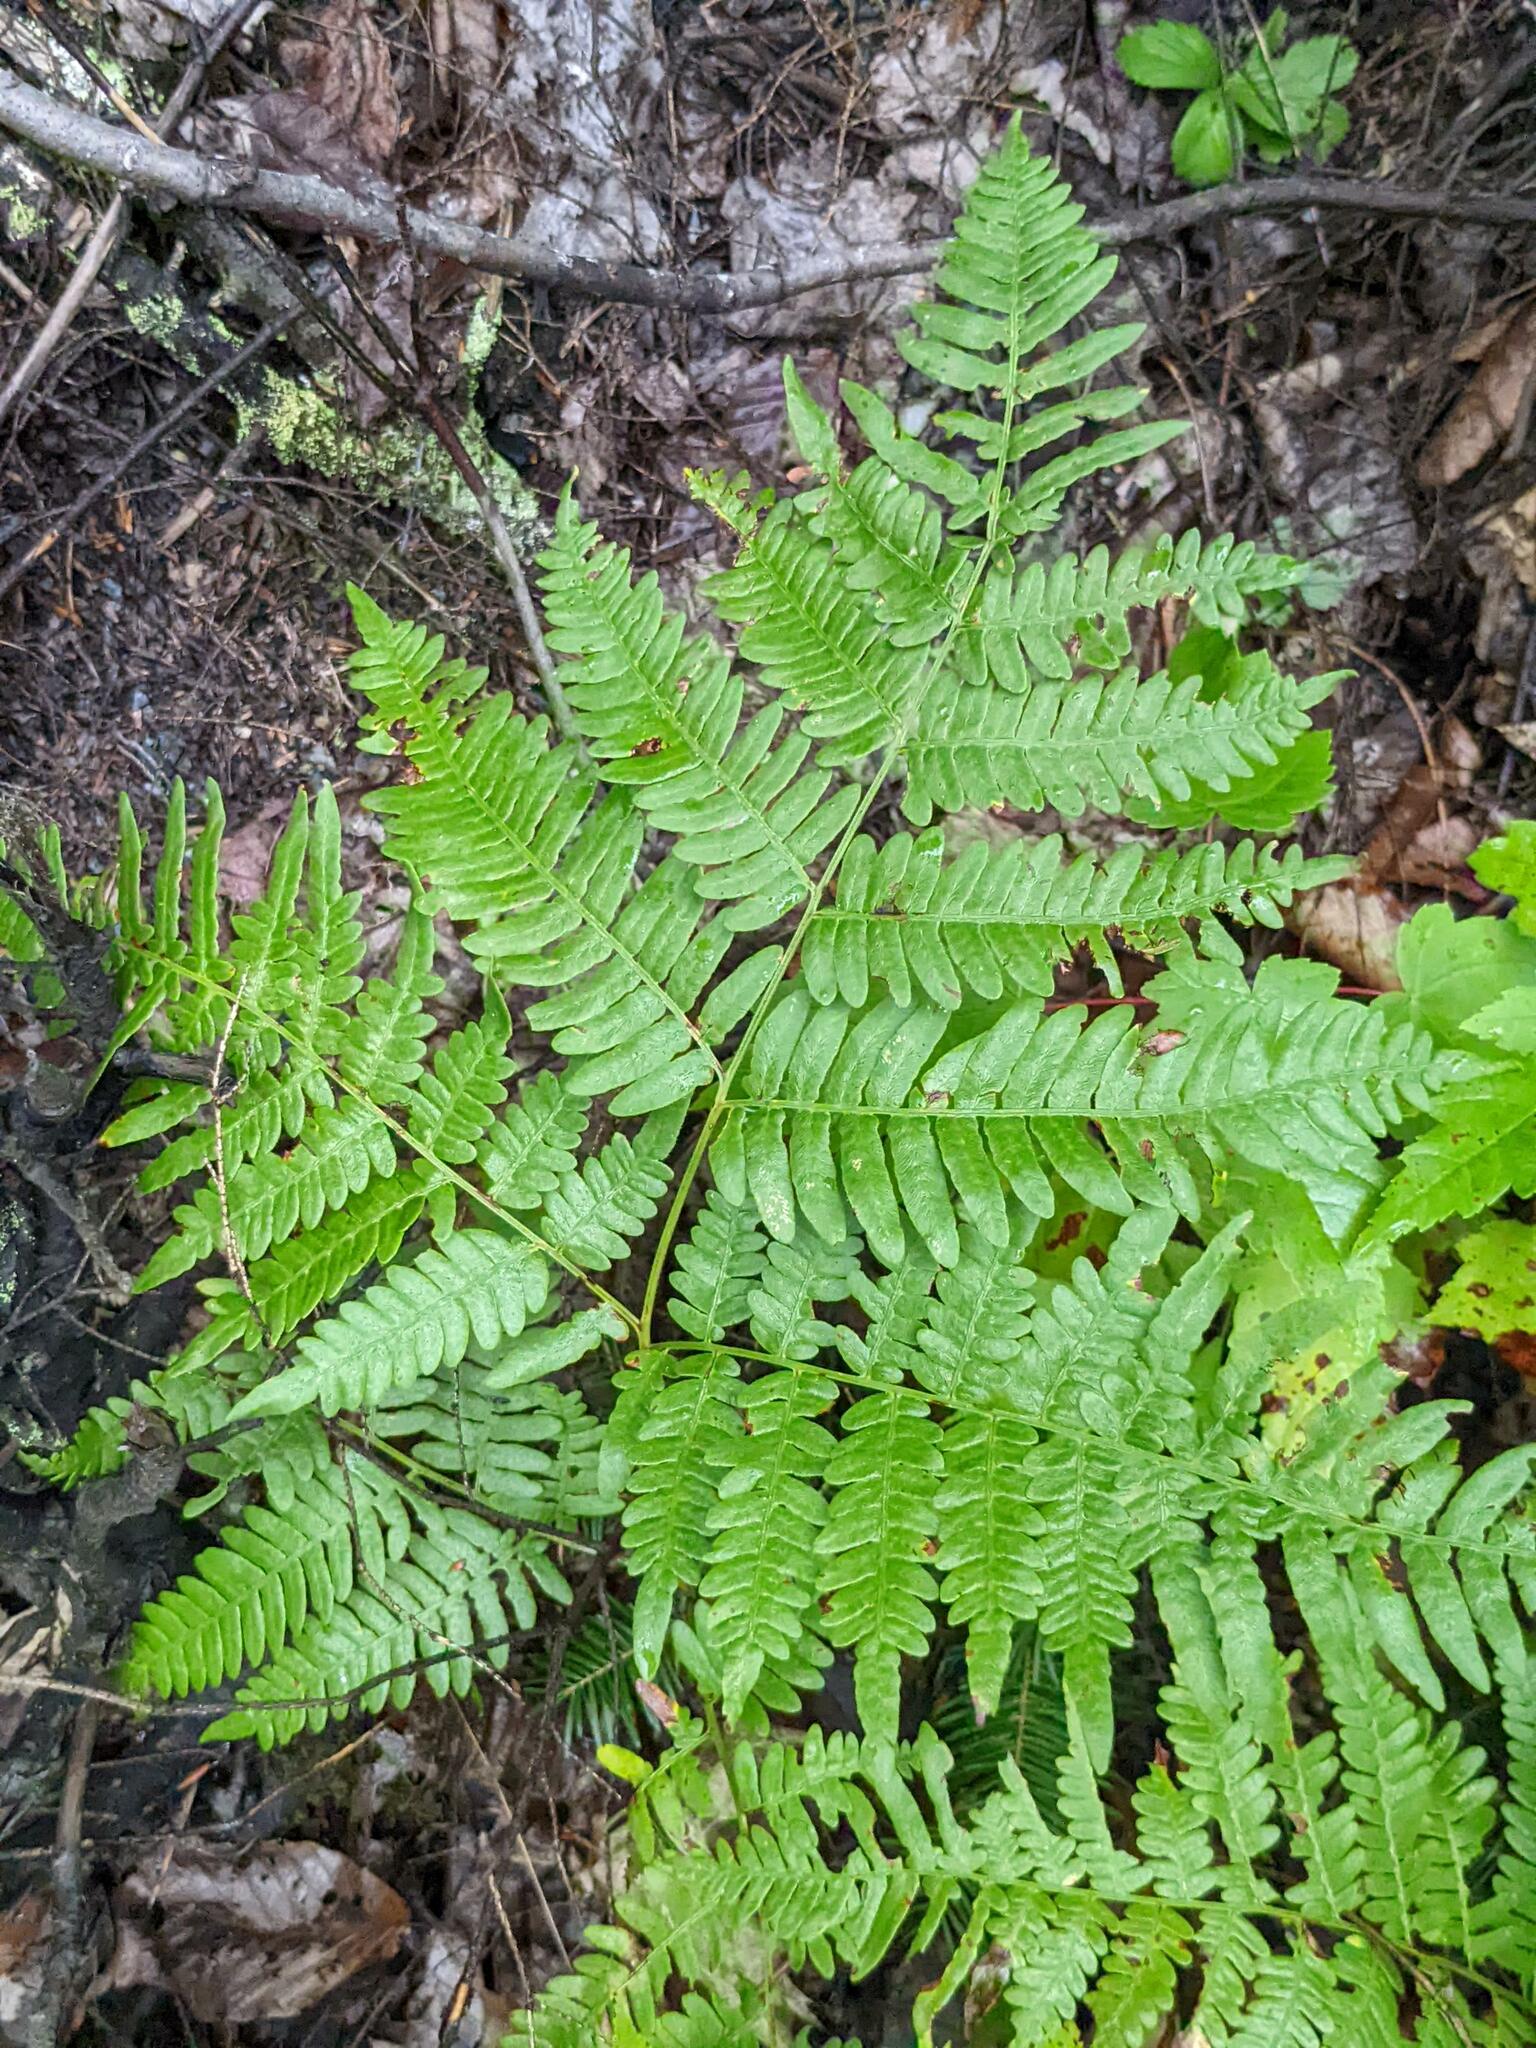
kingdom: Plantae
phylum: Tracheophyta
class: Polypodiopsida
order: Polypodiales
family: Dennstaedtiaceae
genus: Pteridium
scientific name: Pteridium aquilinum
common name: Bracken
